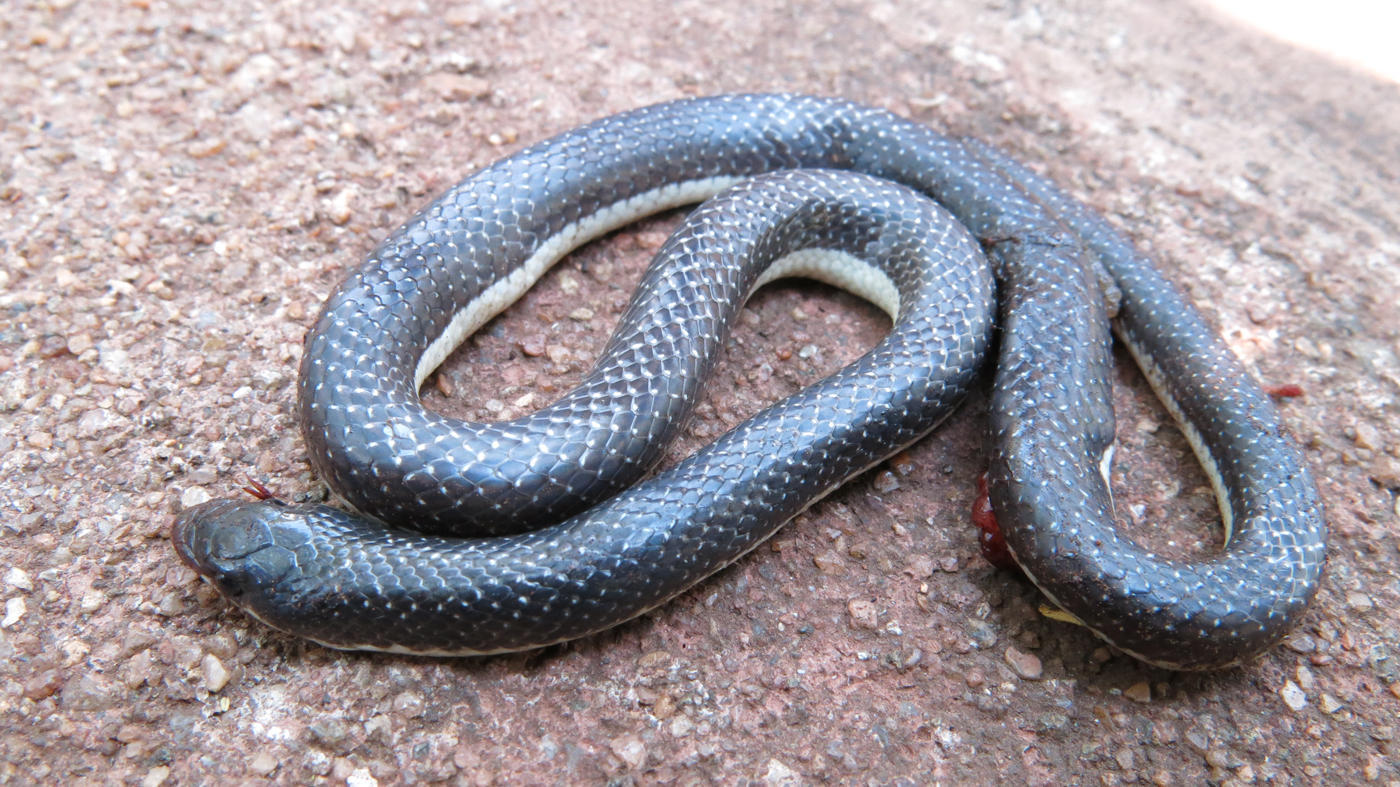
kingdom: Animalia
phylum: Chordata
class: Squamata
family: Prosymnidae
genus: Prosymna
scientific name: Prosymna lineata
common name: Lined shovel-snout
